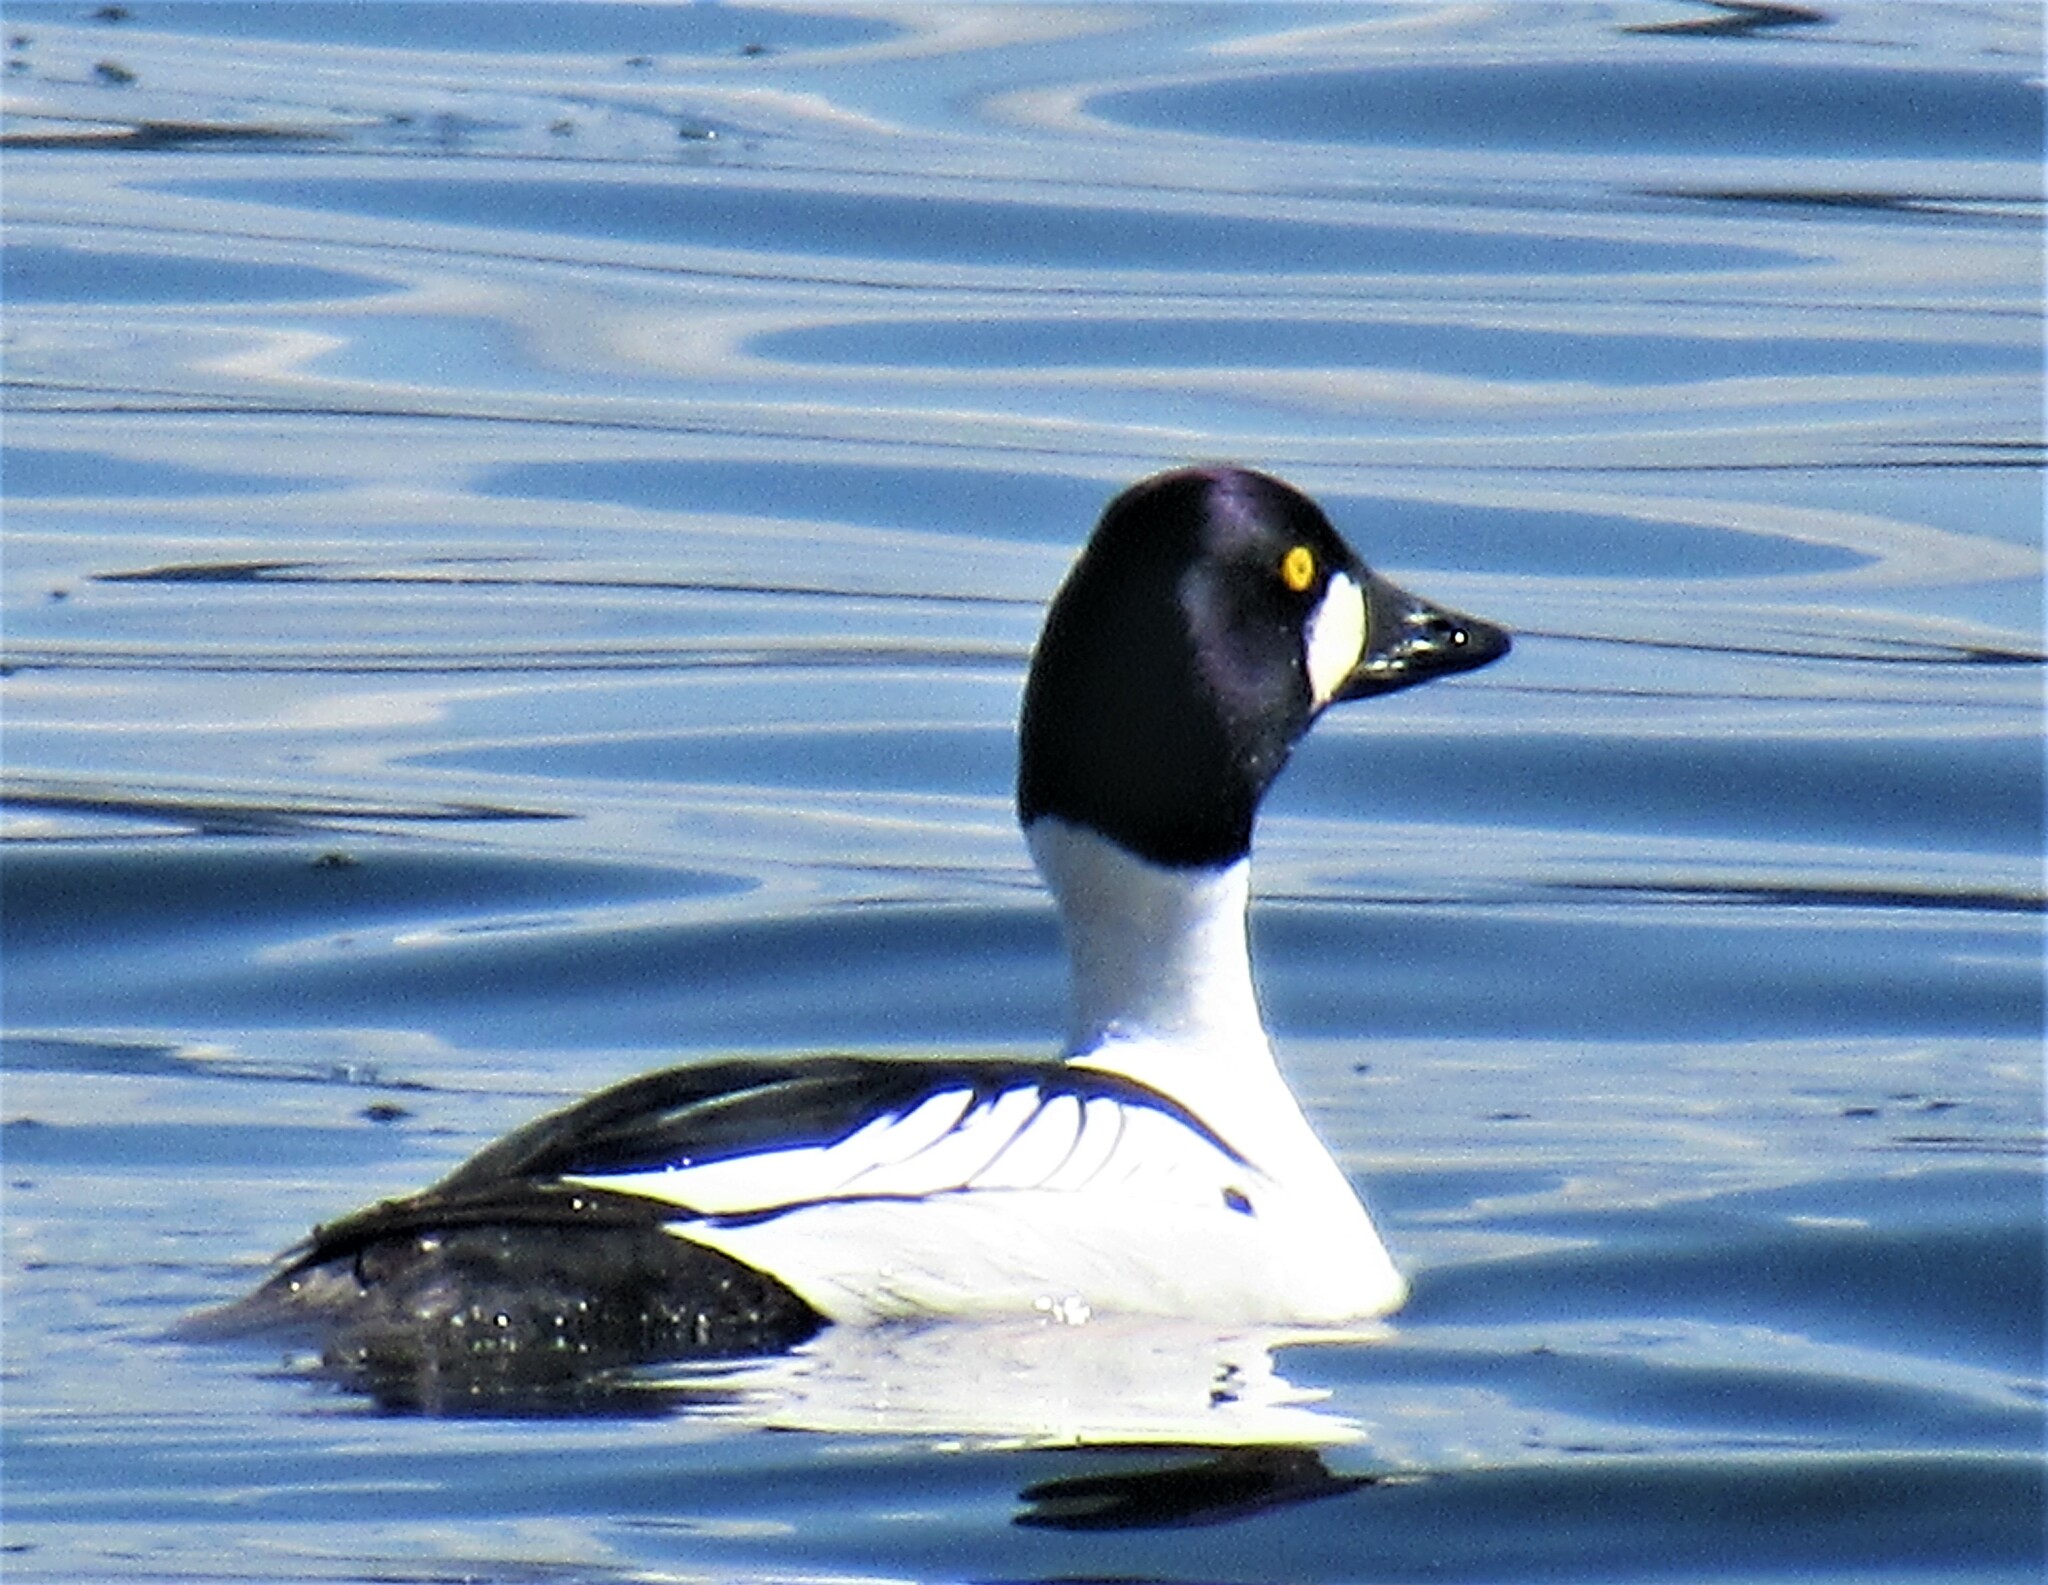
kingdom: Animalia
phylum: Chordata
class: Aves
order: Anseriformes
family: Anatidae
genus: Bucephala
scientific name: Bucephala clangula
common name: Common goldeneye
